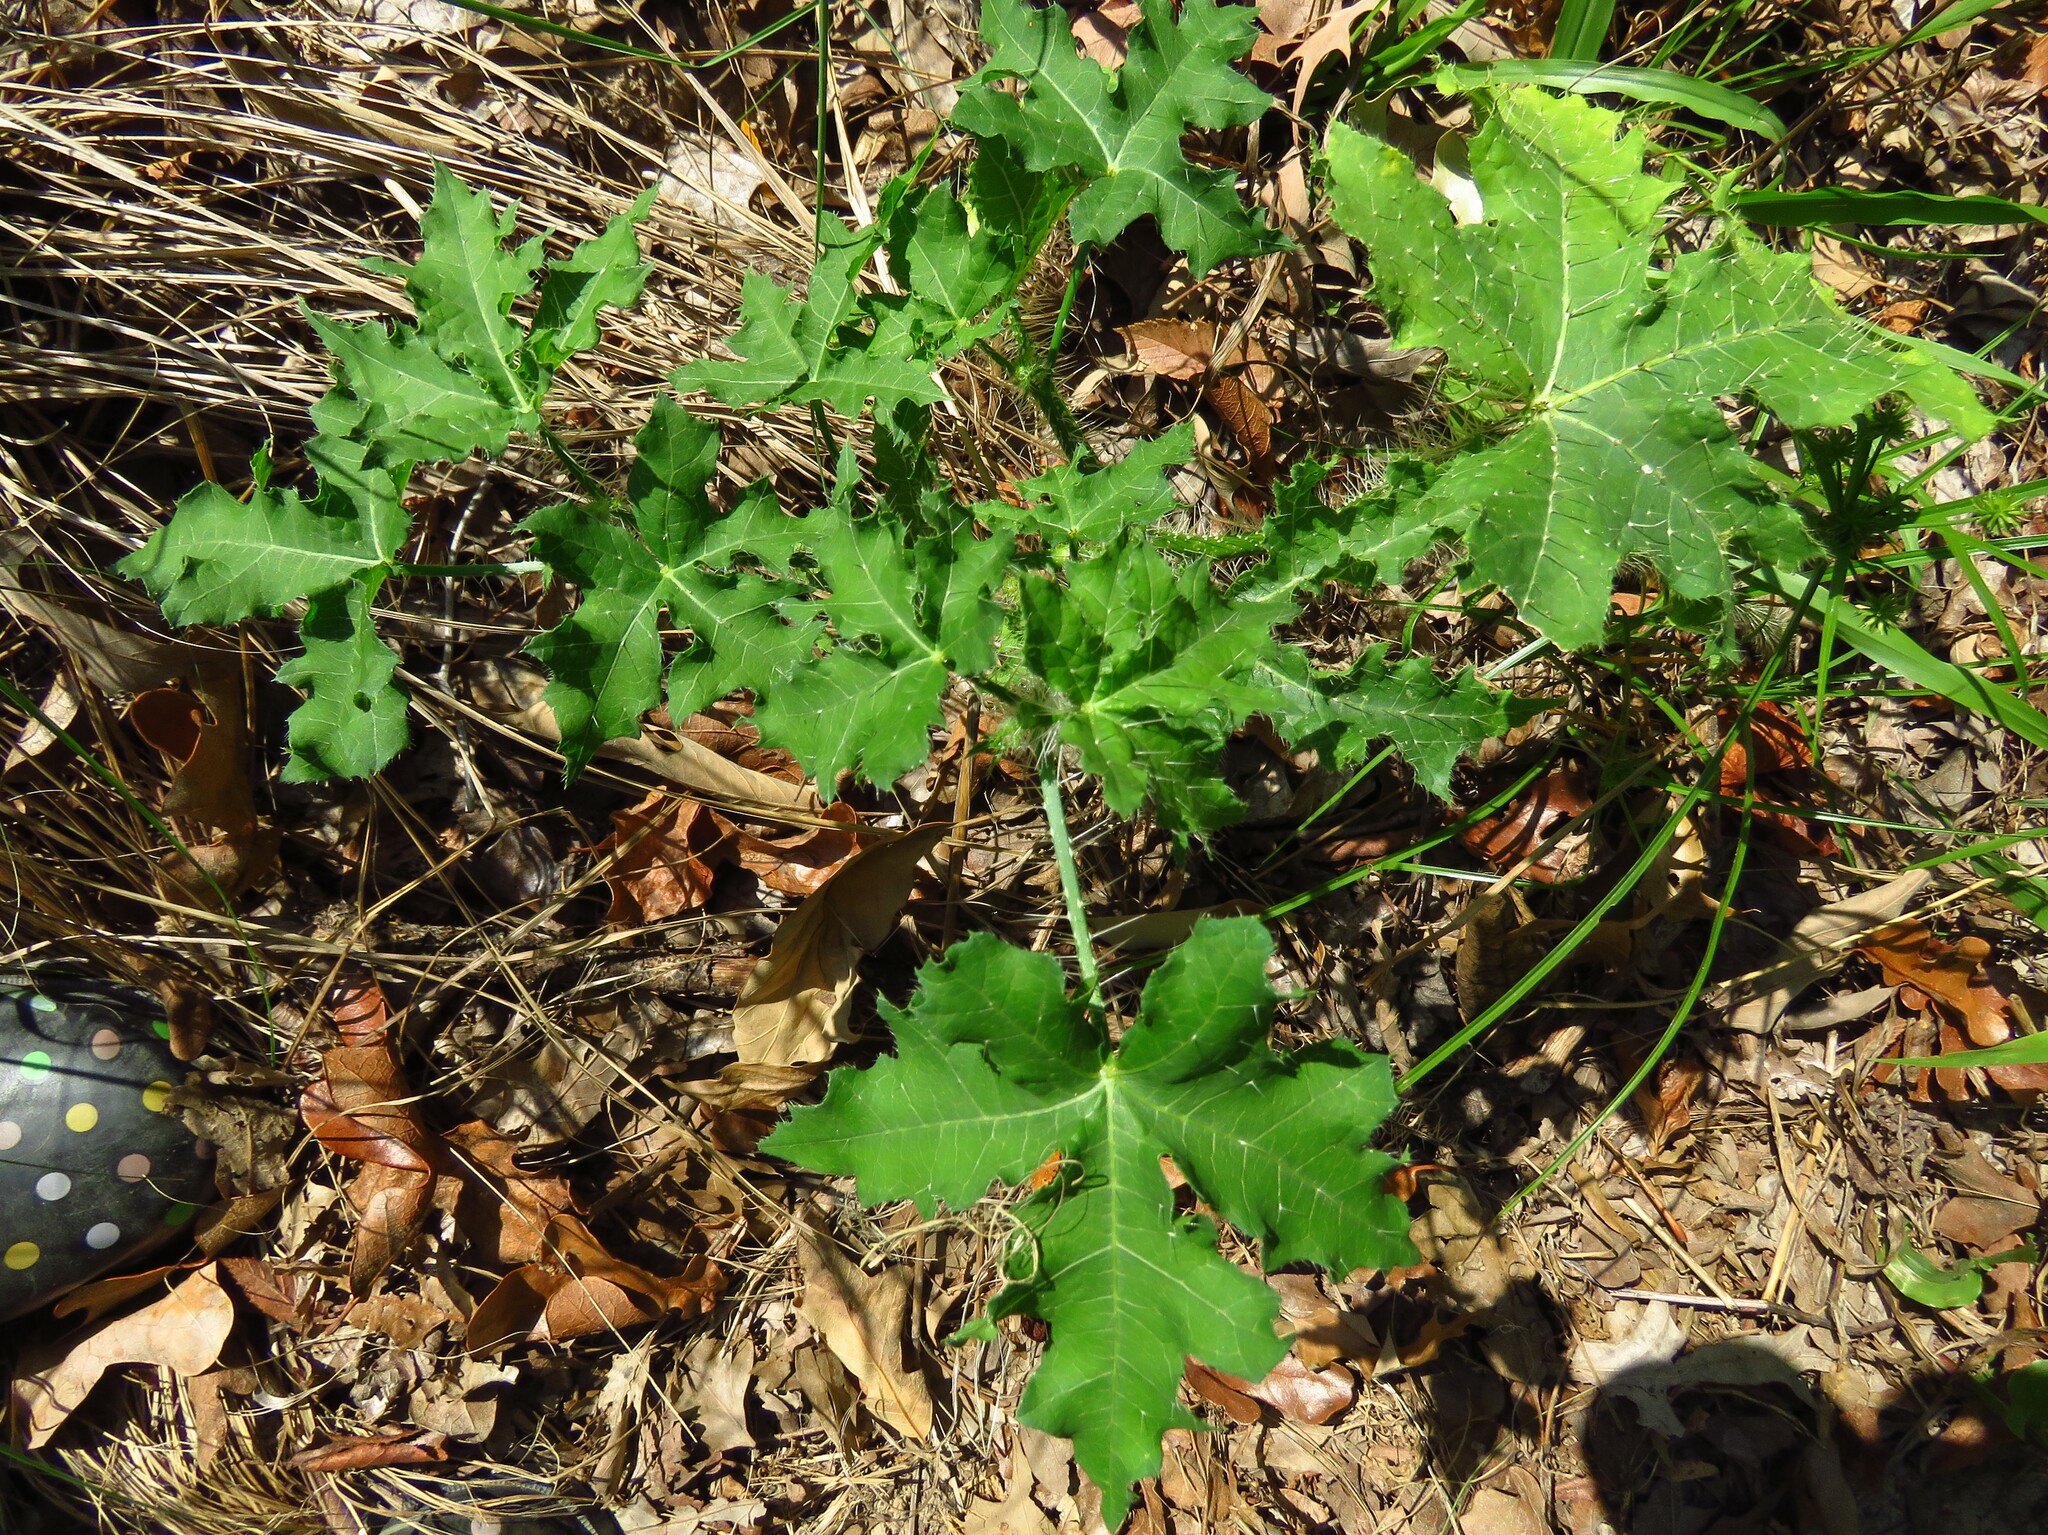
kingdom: Plantae
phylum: Tracheophyta
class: Magnoliopsida
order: Malpighiales
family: Euphorbiaceae
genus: Cnidoscolus
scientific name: Cnidoscolus texanus
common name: Texas bull-nettle
